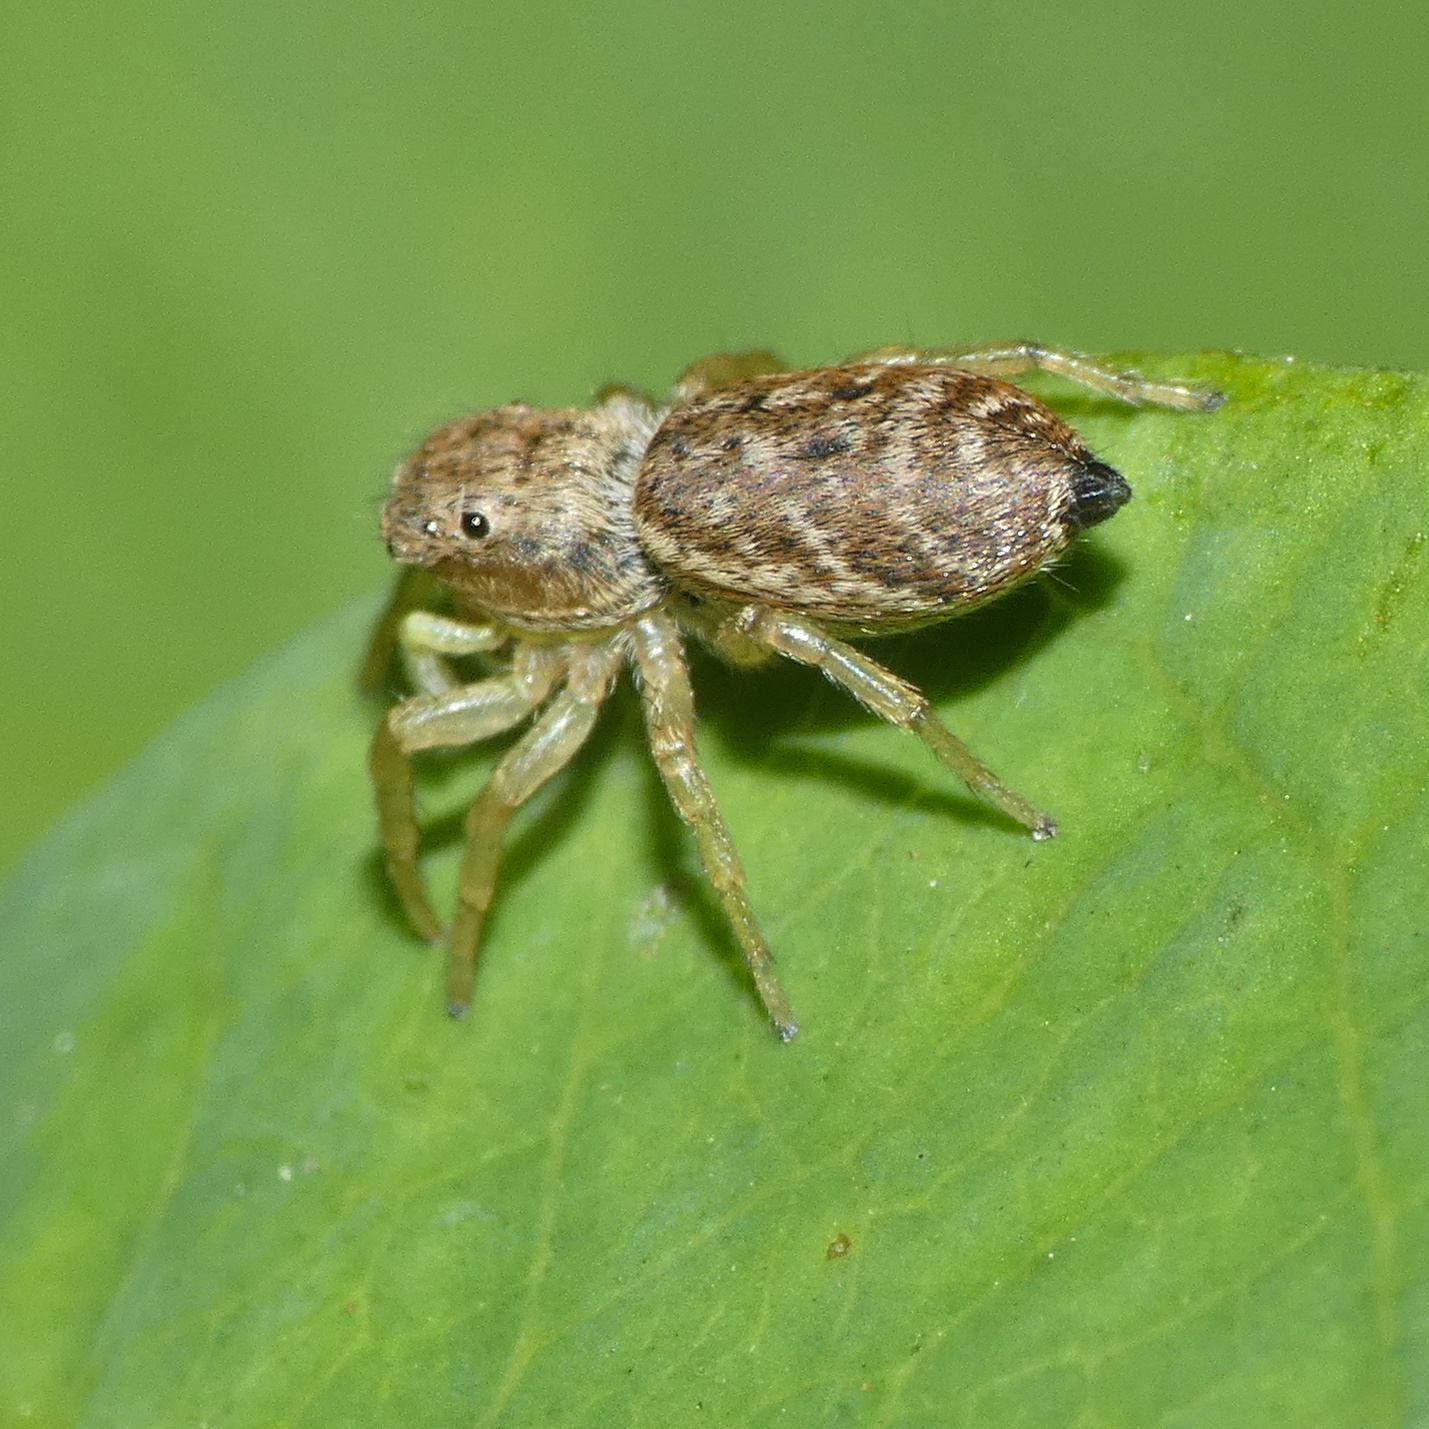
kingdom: Animalia
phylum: Arthropoda
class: Arachnida
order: Araneae
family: Salticidae
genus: Heliophanus
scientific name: Heliophanus
